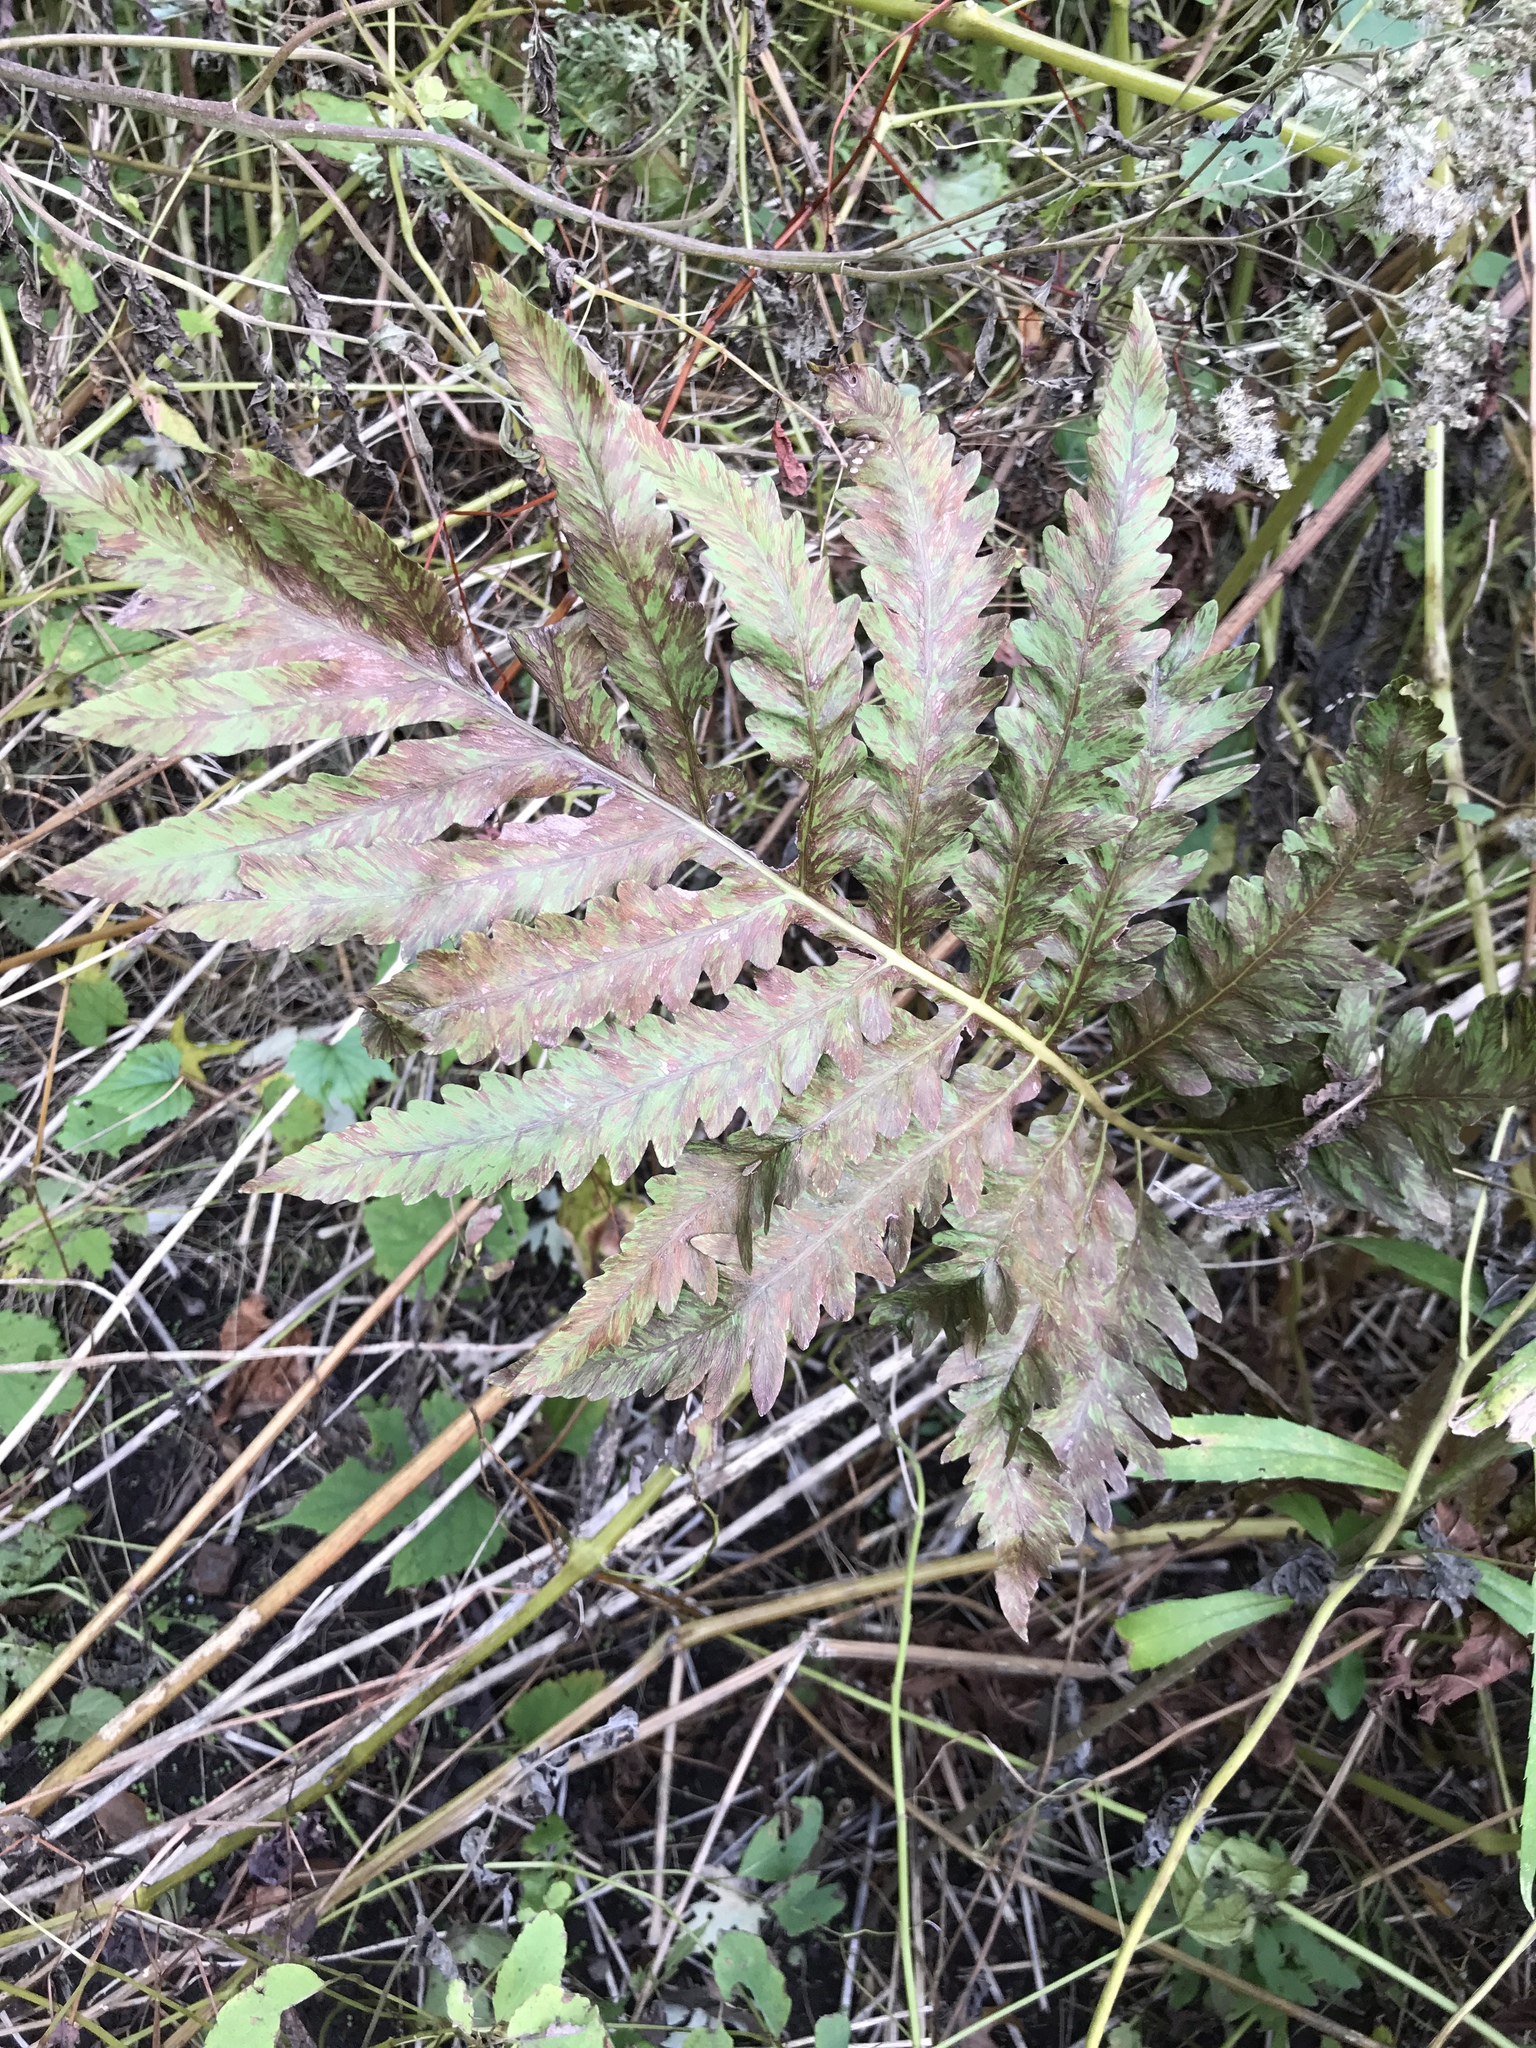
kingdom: Plantae
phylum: Tracheophyta
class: Polypodiopsida
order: Polypodiales
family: Onocleaceae
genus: Onoclea
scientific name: Onoclea sensibilis
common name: Sensitive fern
